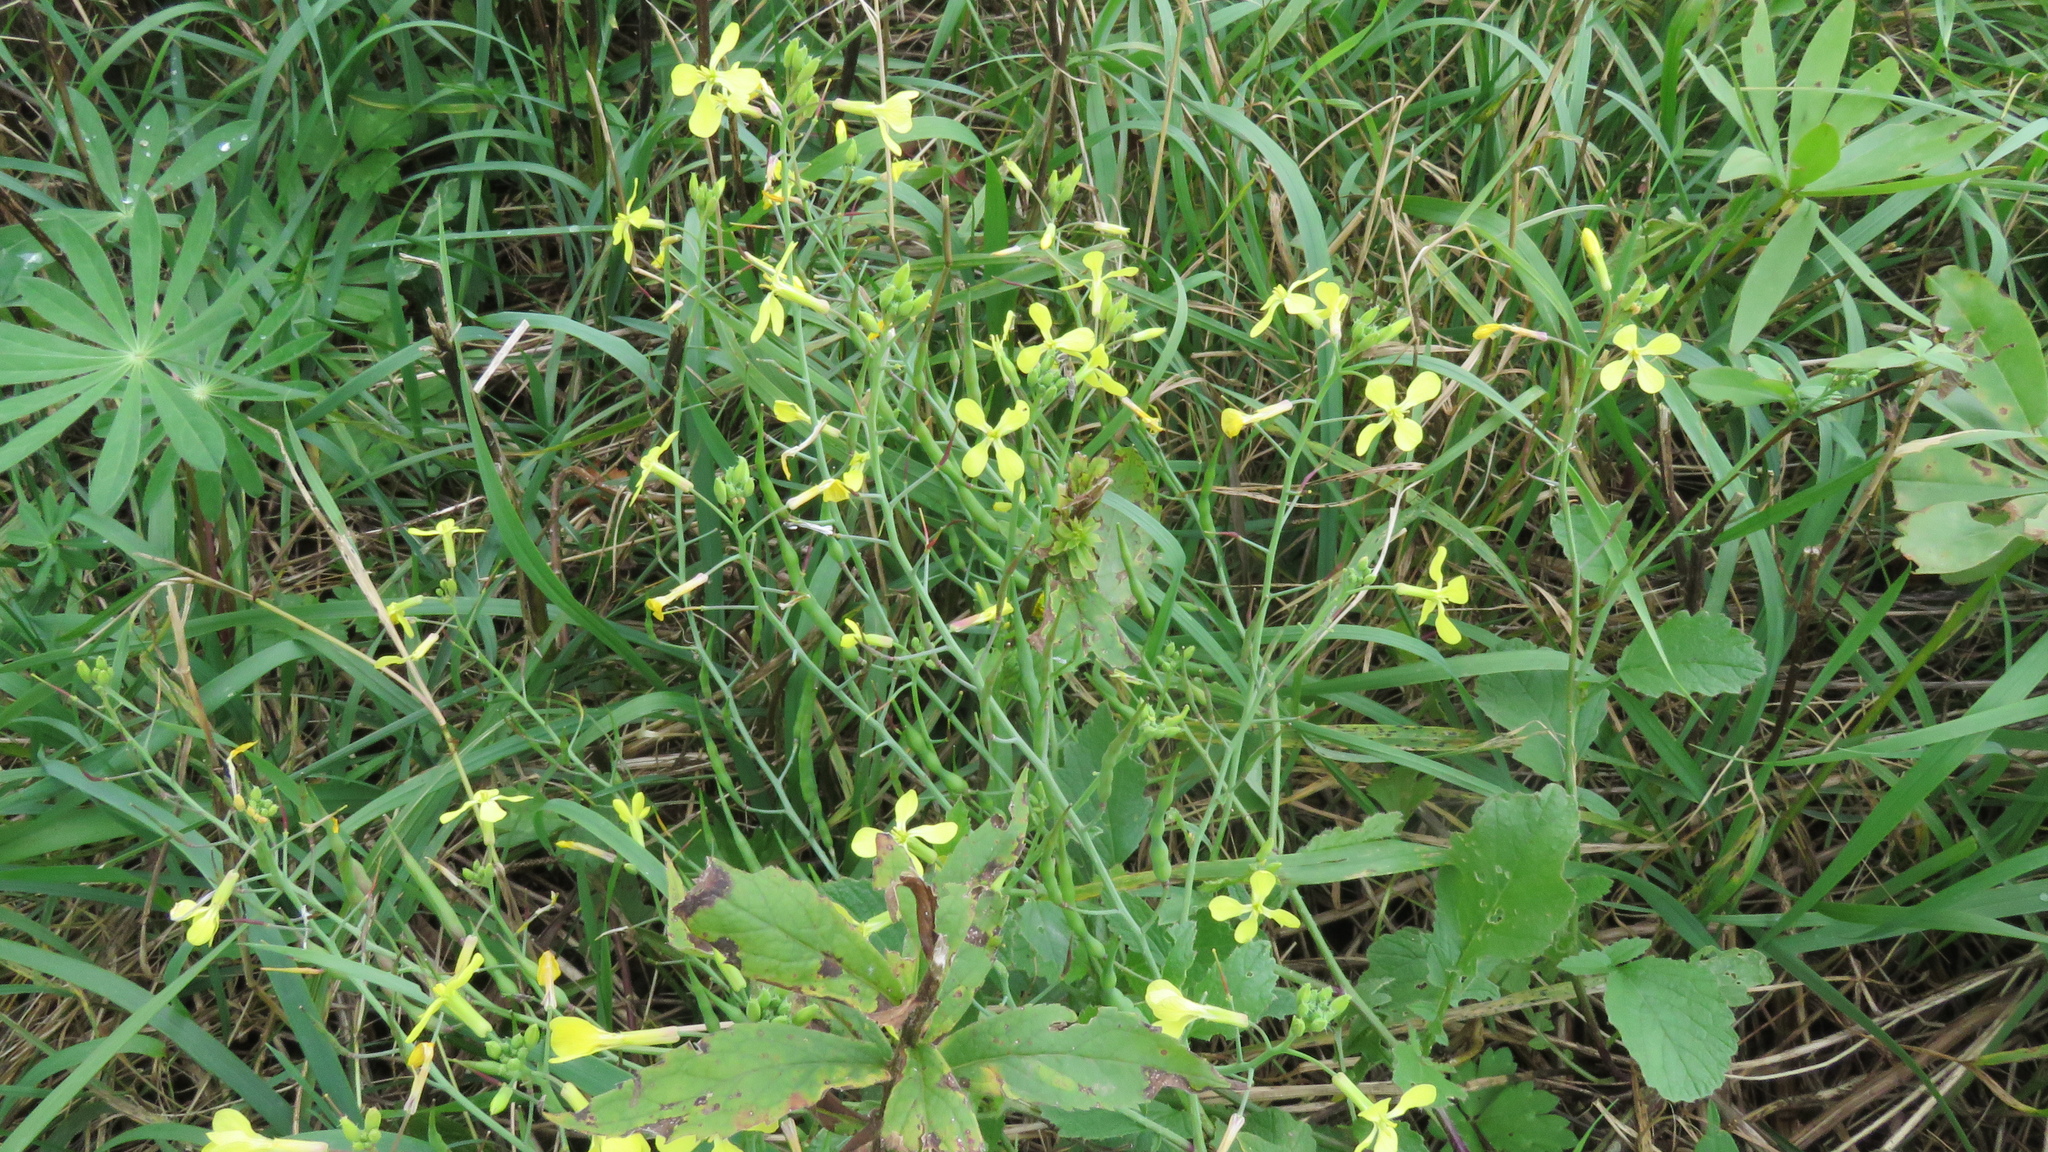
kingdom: Plantae
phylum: Tracheophyta
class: Magnoliopsida
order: Brassicales
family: Brassicaceae
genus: Raphanus
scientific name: Raphanus raphanistrum
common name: Wild radish
